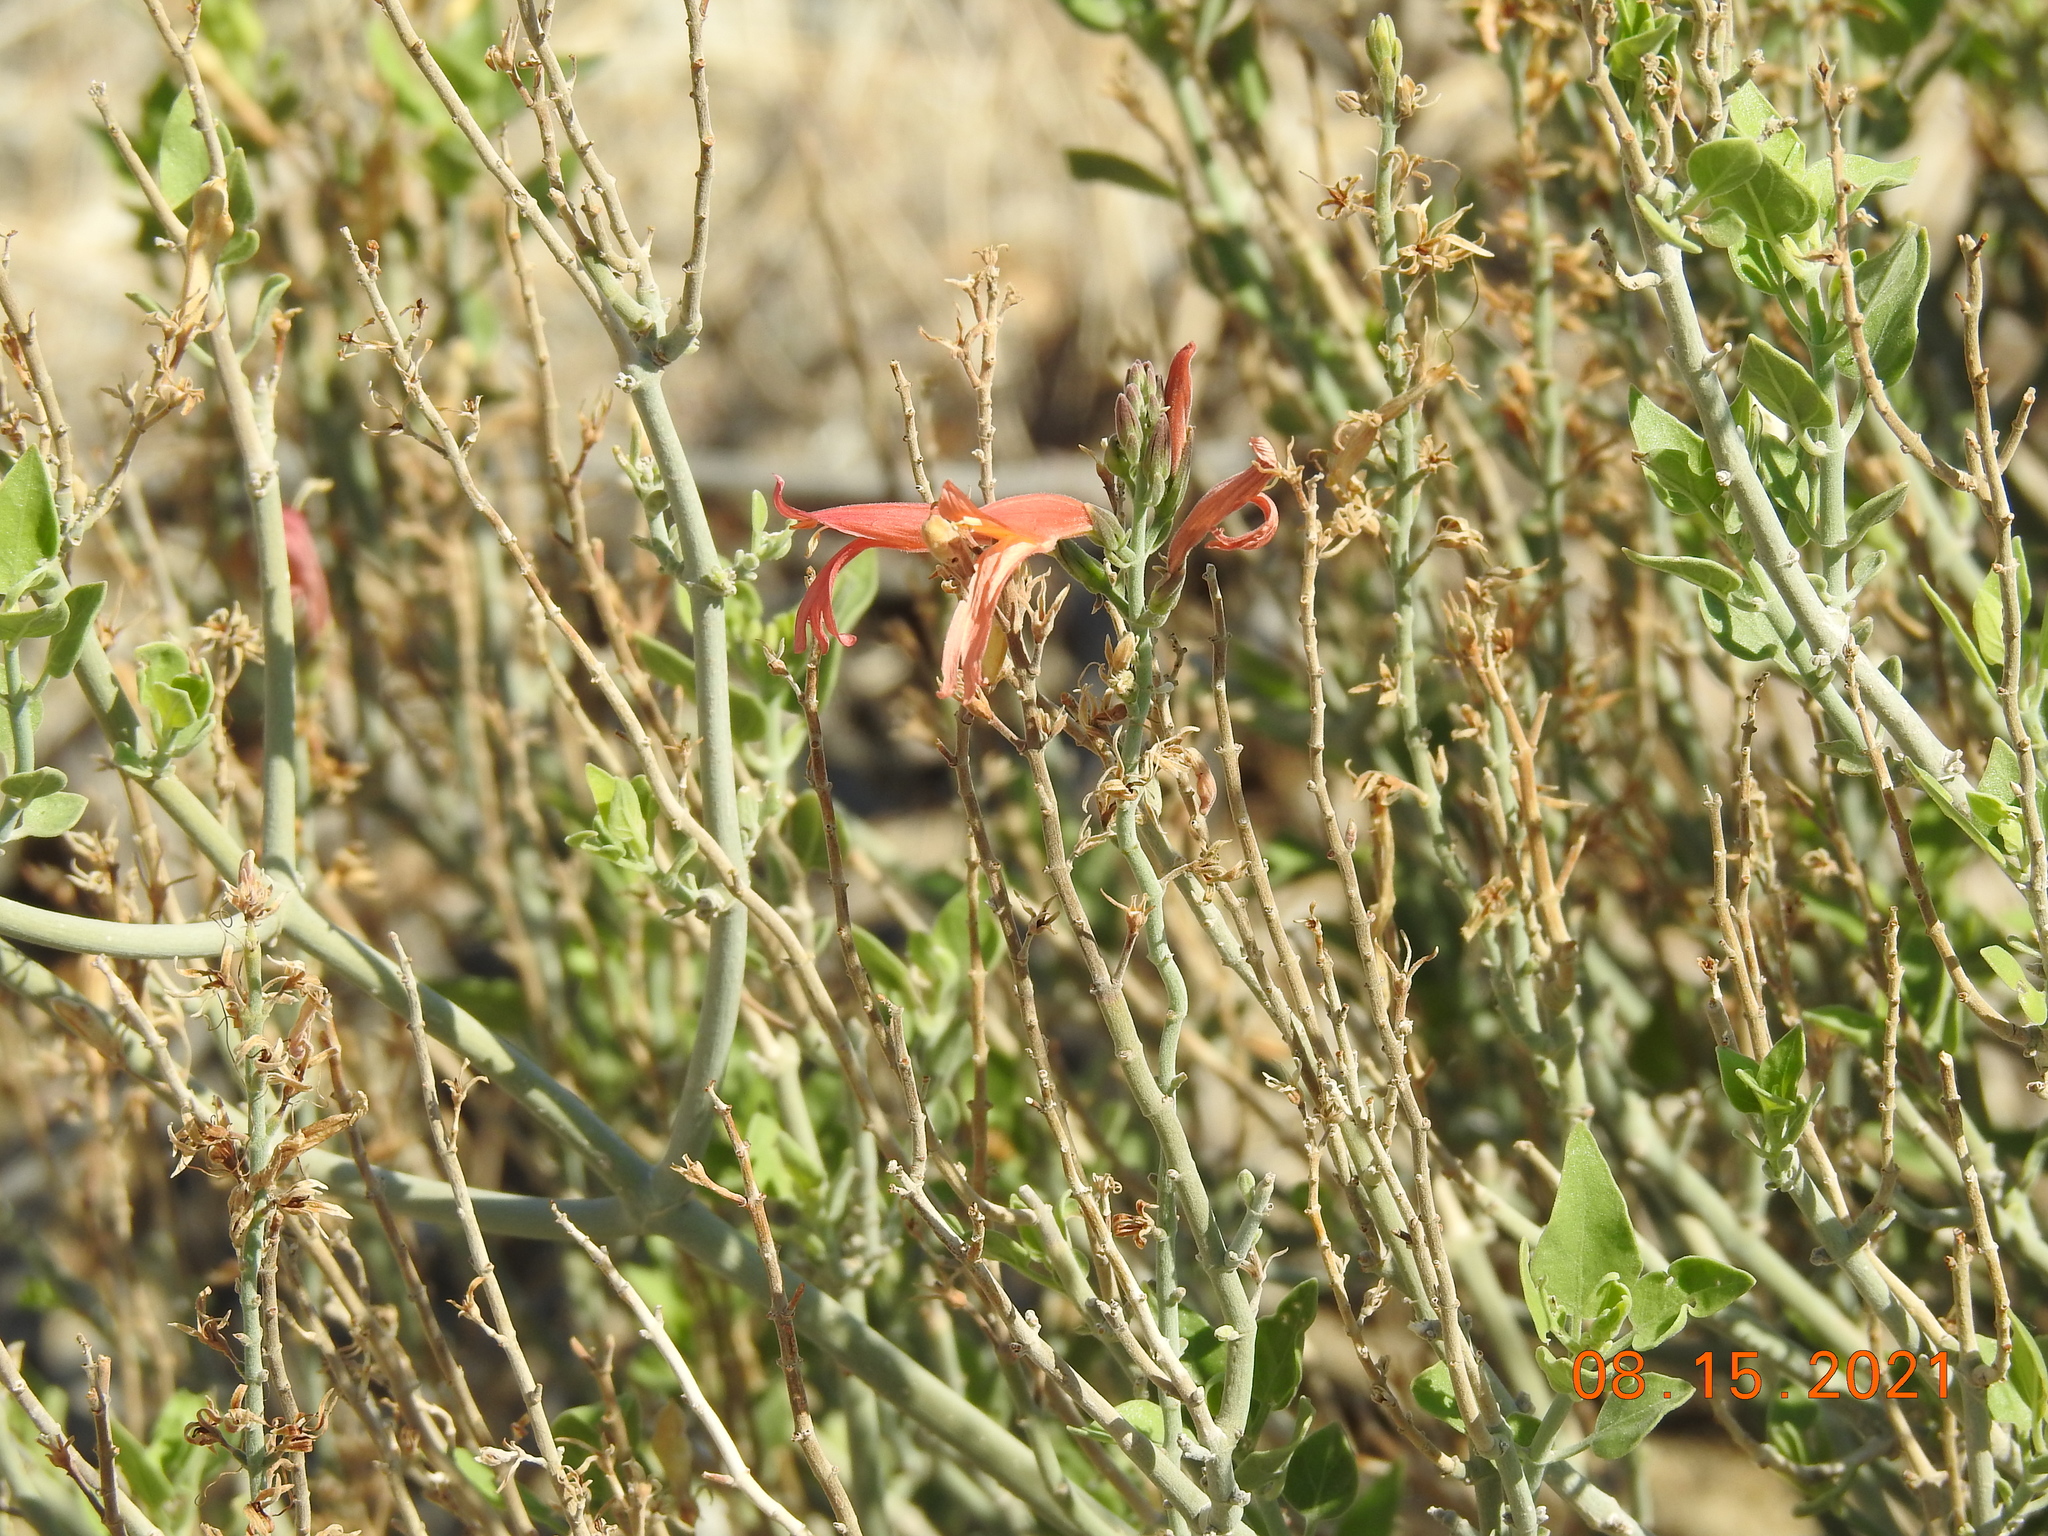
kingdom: Plantae
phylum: Tracheophyta
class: Magnoliopsida
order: Lamiales
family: Acanthaceae
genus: Justicia
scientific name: Justicia californica
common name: Chuparosa-honeysuckle
